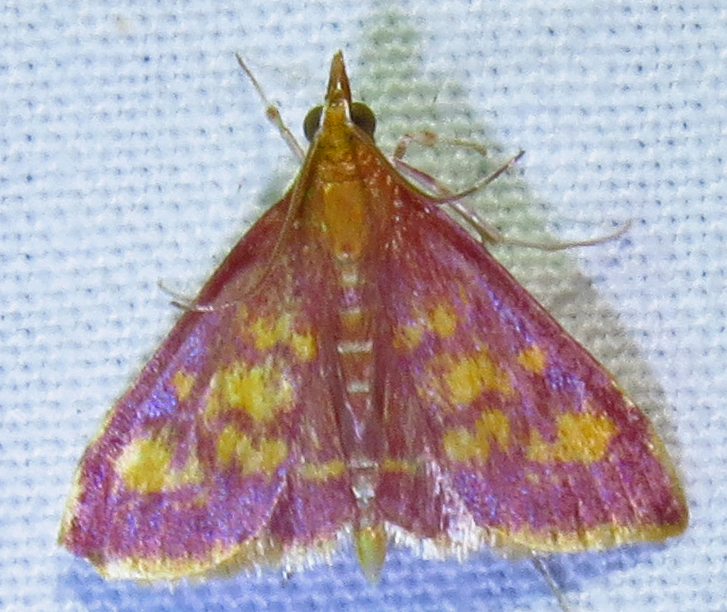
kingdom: Animalia
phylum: Arthropoda
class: Insecta
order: Lepidoptera
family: Crambidae
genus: Pyrausta
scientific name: Pyrausta acrionalis
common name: Mint-loving pyrausta moth
